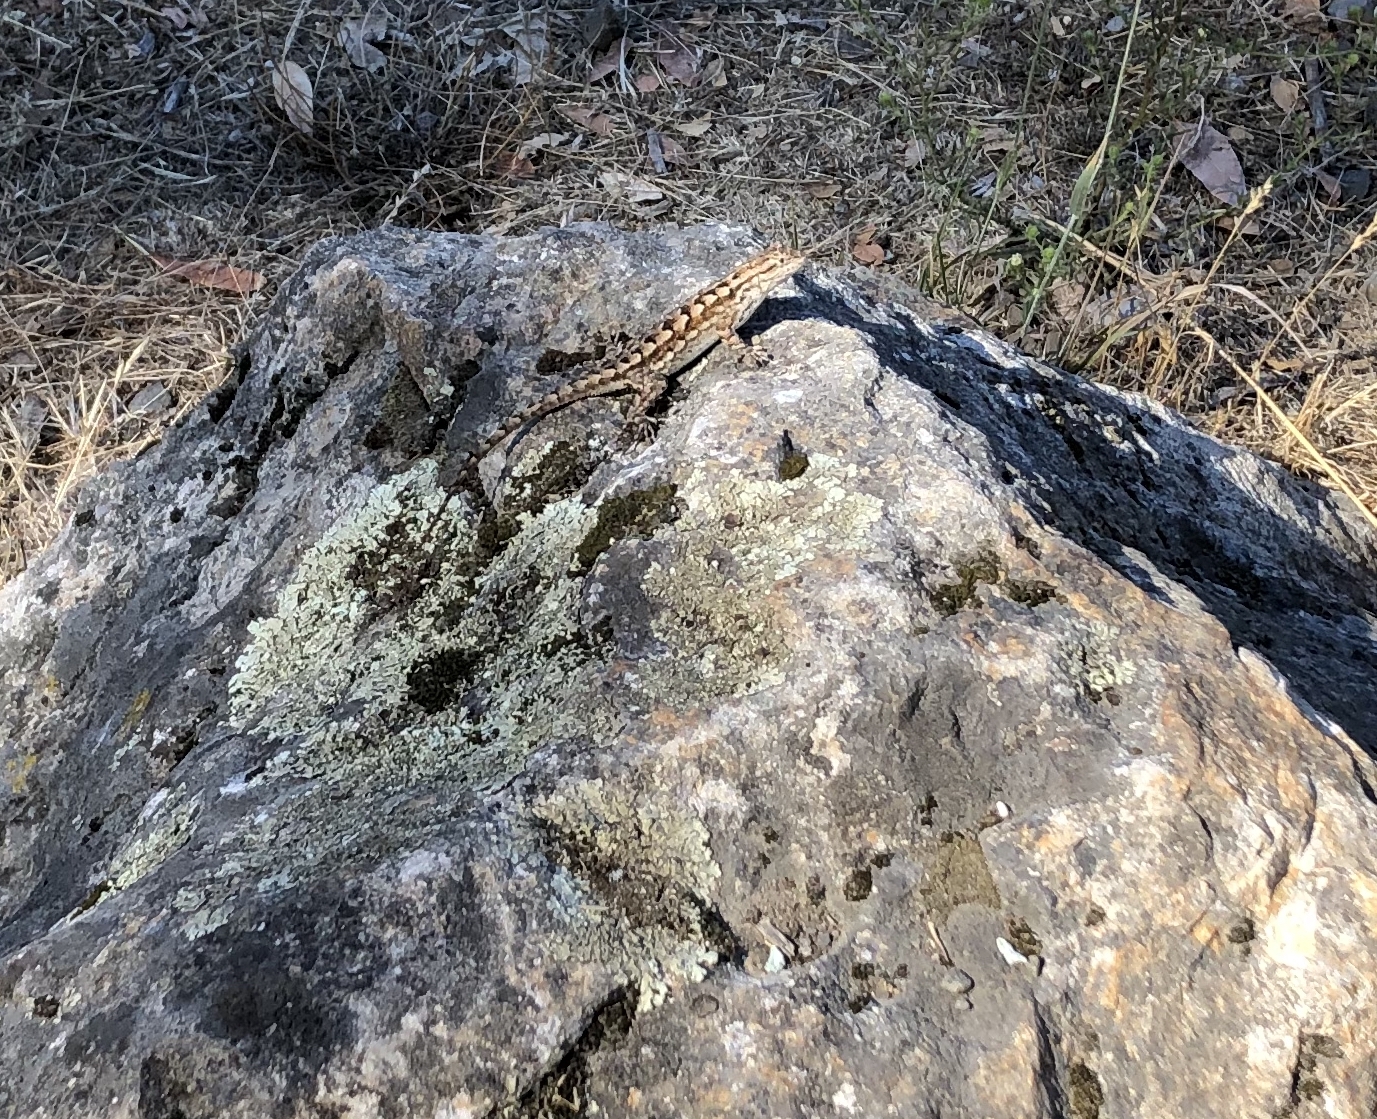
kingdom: Animalia
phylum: Chordata
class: Squamata
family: Phrynosomatidae
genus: Sceloporus
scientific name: Sceloporus occidentalis
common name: Western fence lizard
